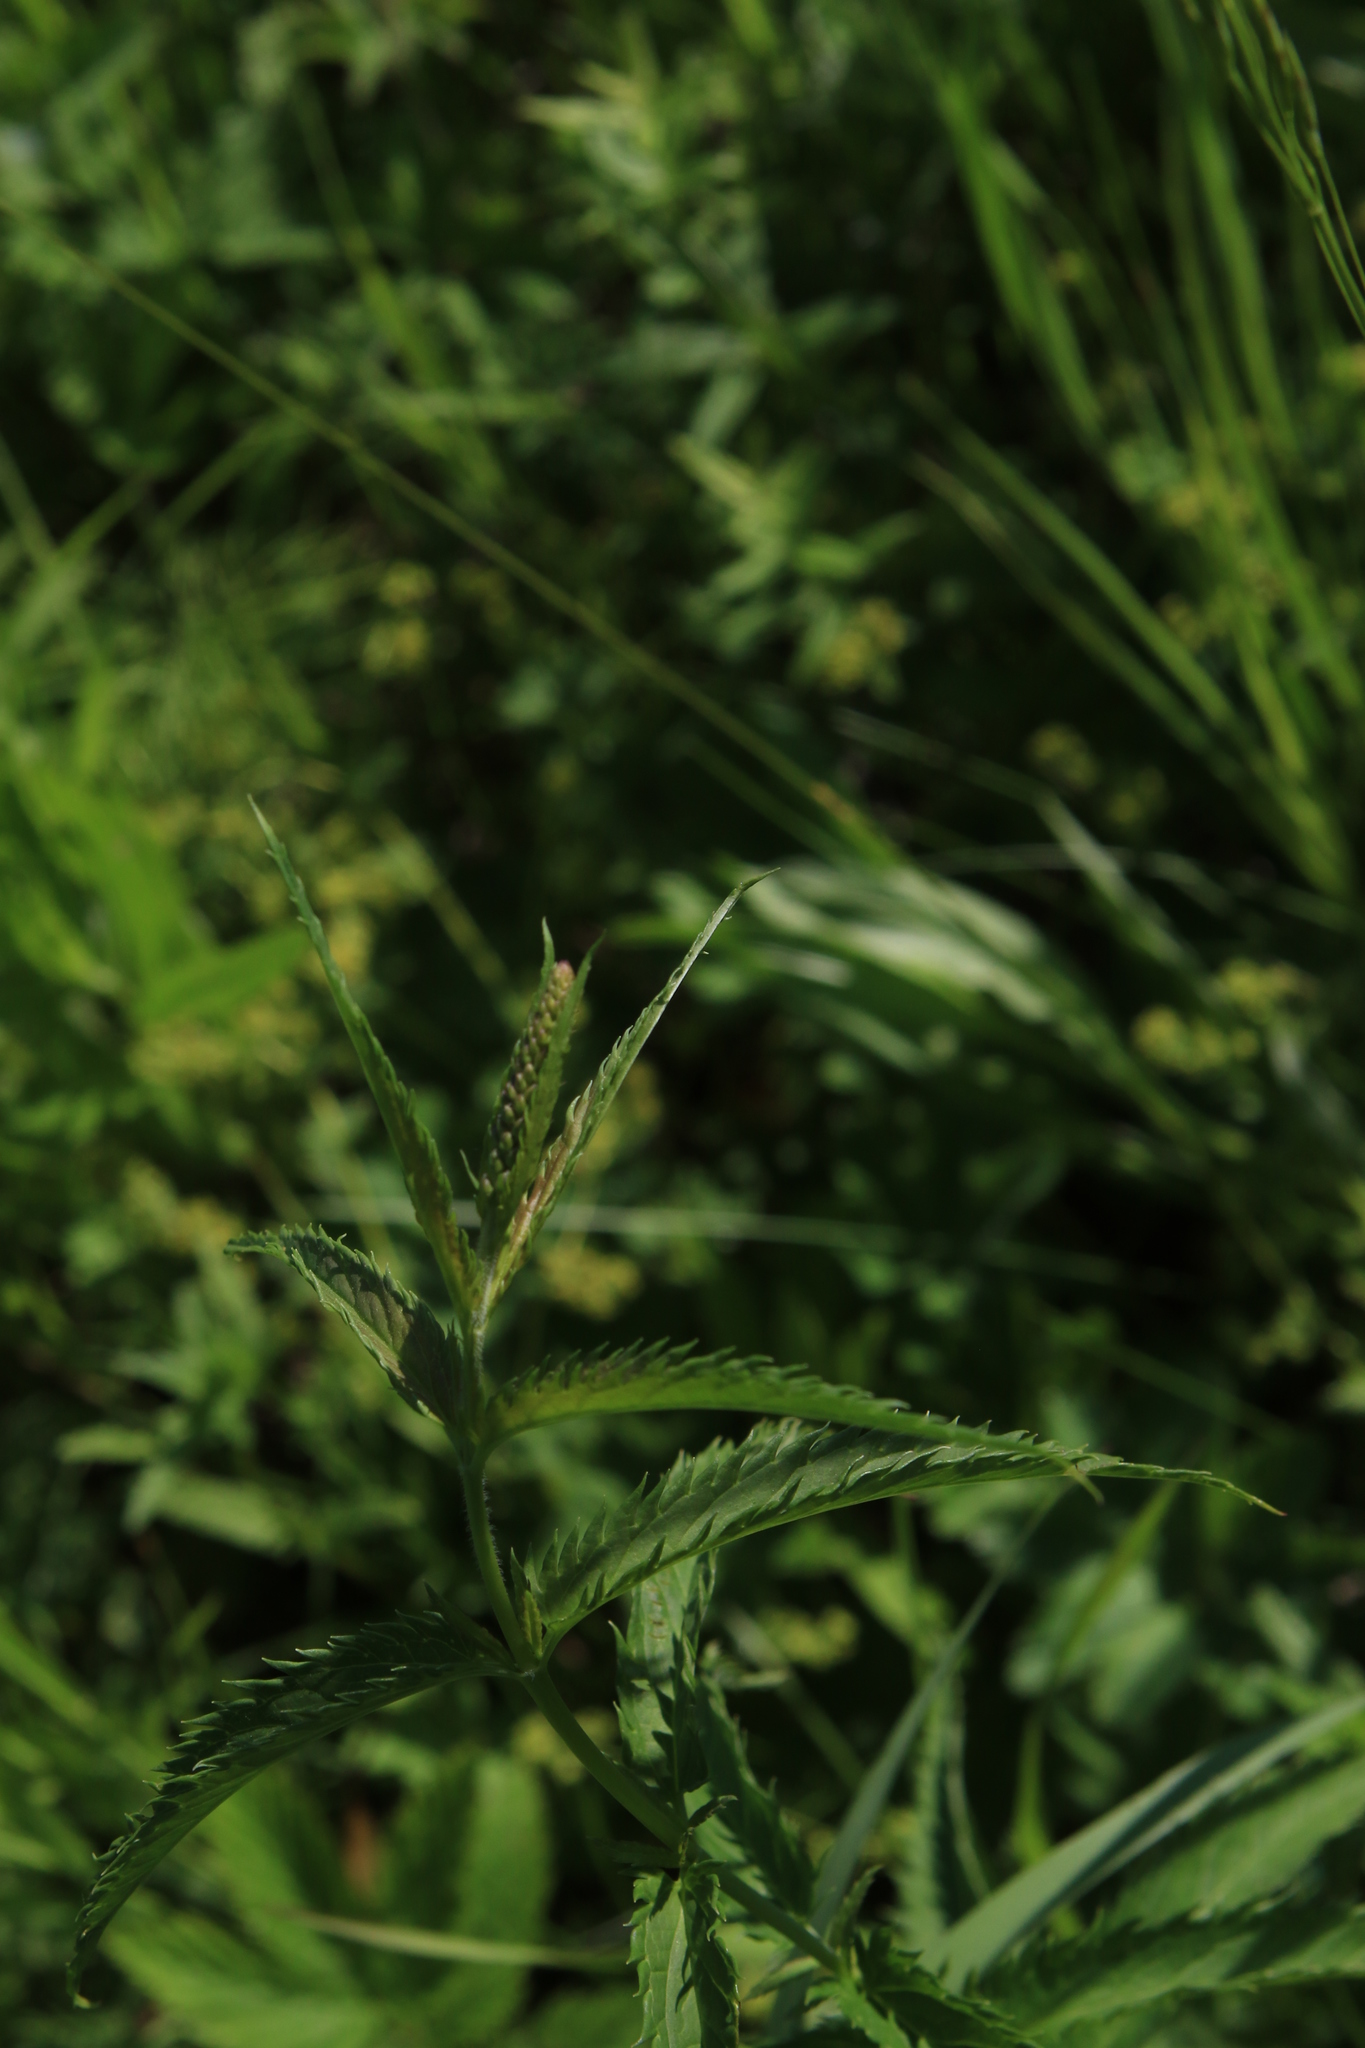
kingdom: Plantae
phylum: Tracheophyta
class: Magnoliopsida
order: Lamiales
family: Plantaginaceae
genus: Veronica
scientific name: Veronica longifolia
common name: Garden speedwell
